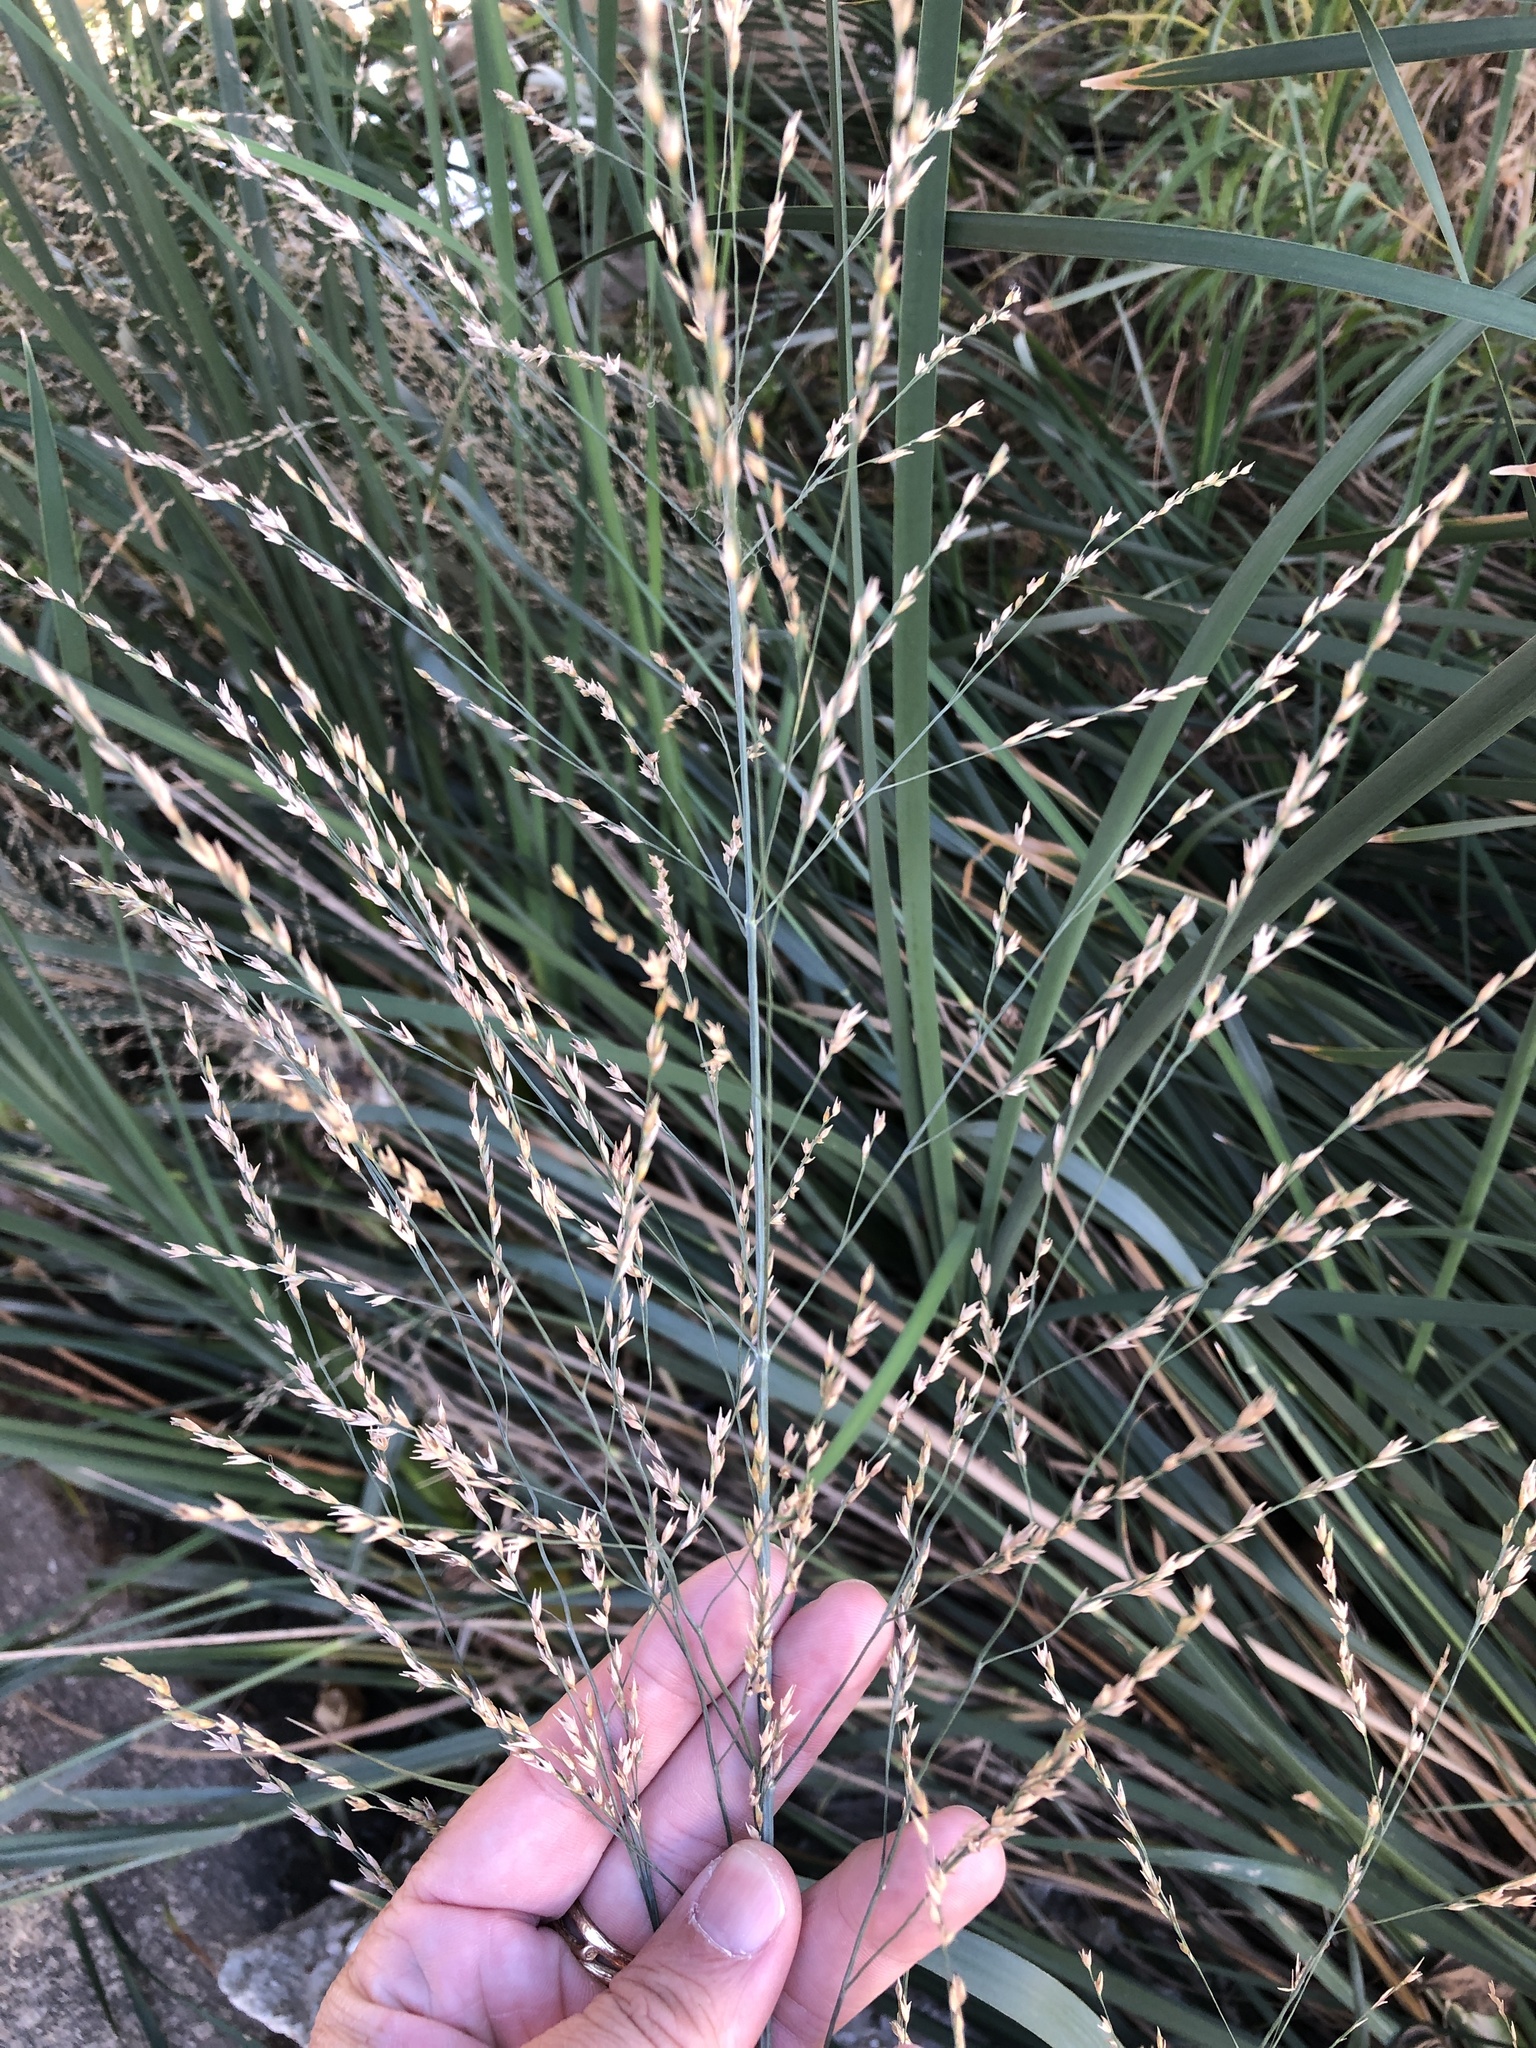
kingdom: Plantae
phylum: Tracheophyta
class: Liliopsida
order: Poales
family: Poaceae
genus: Panicum
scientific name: Panicum virgatum
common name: Switchgrass
